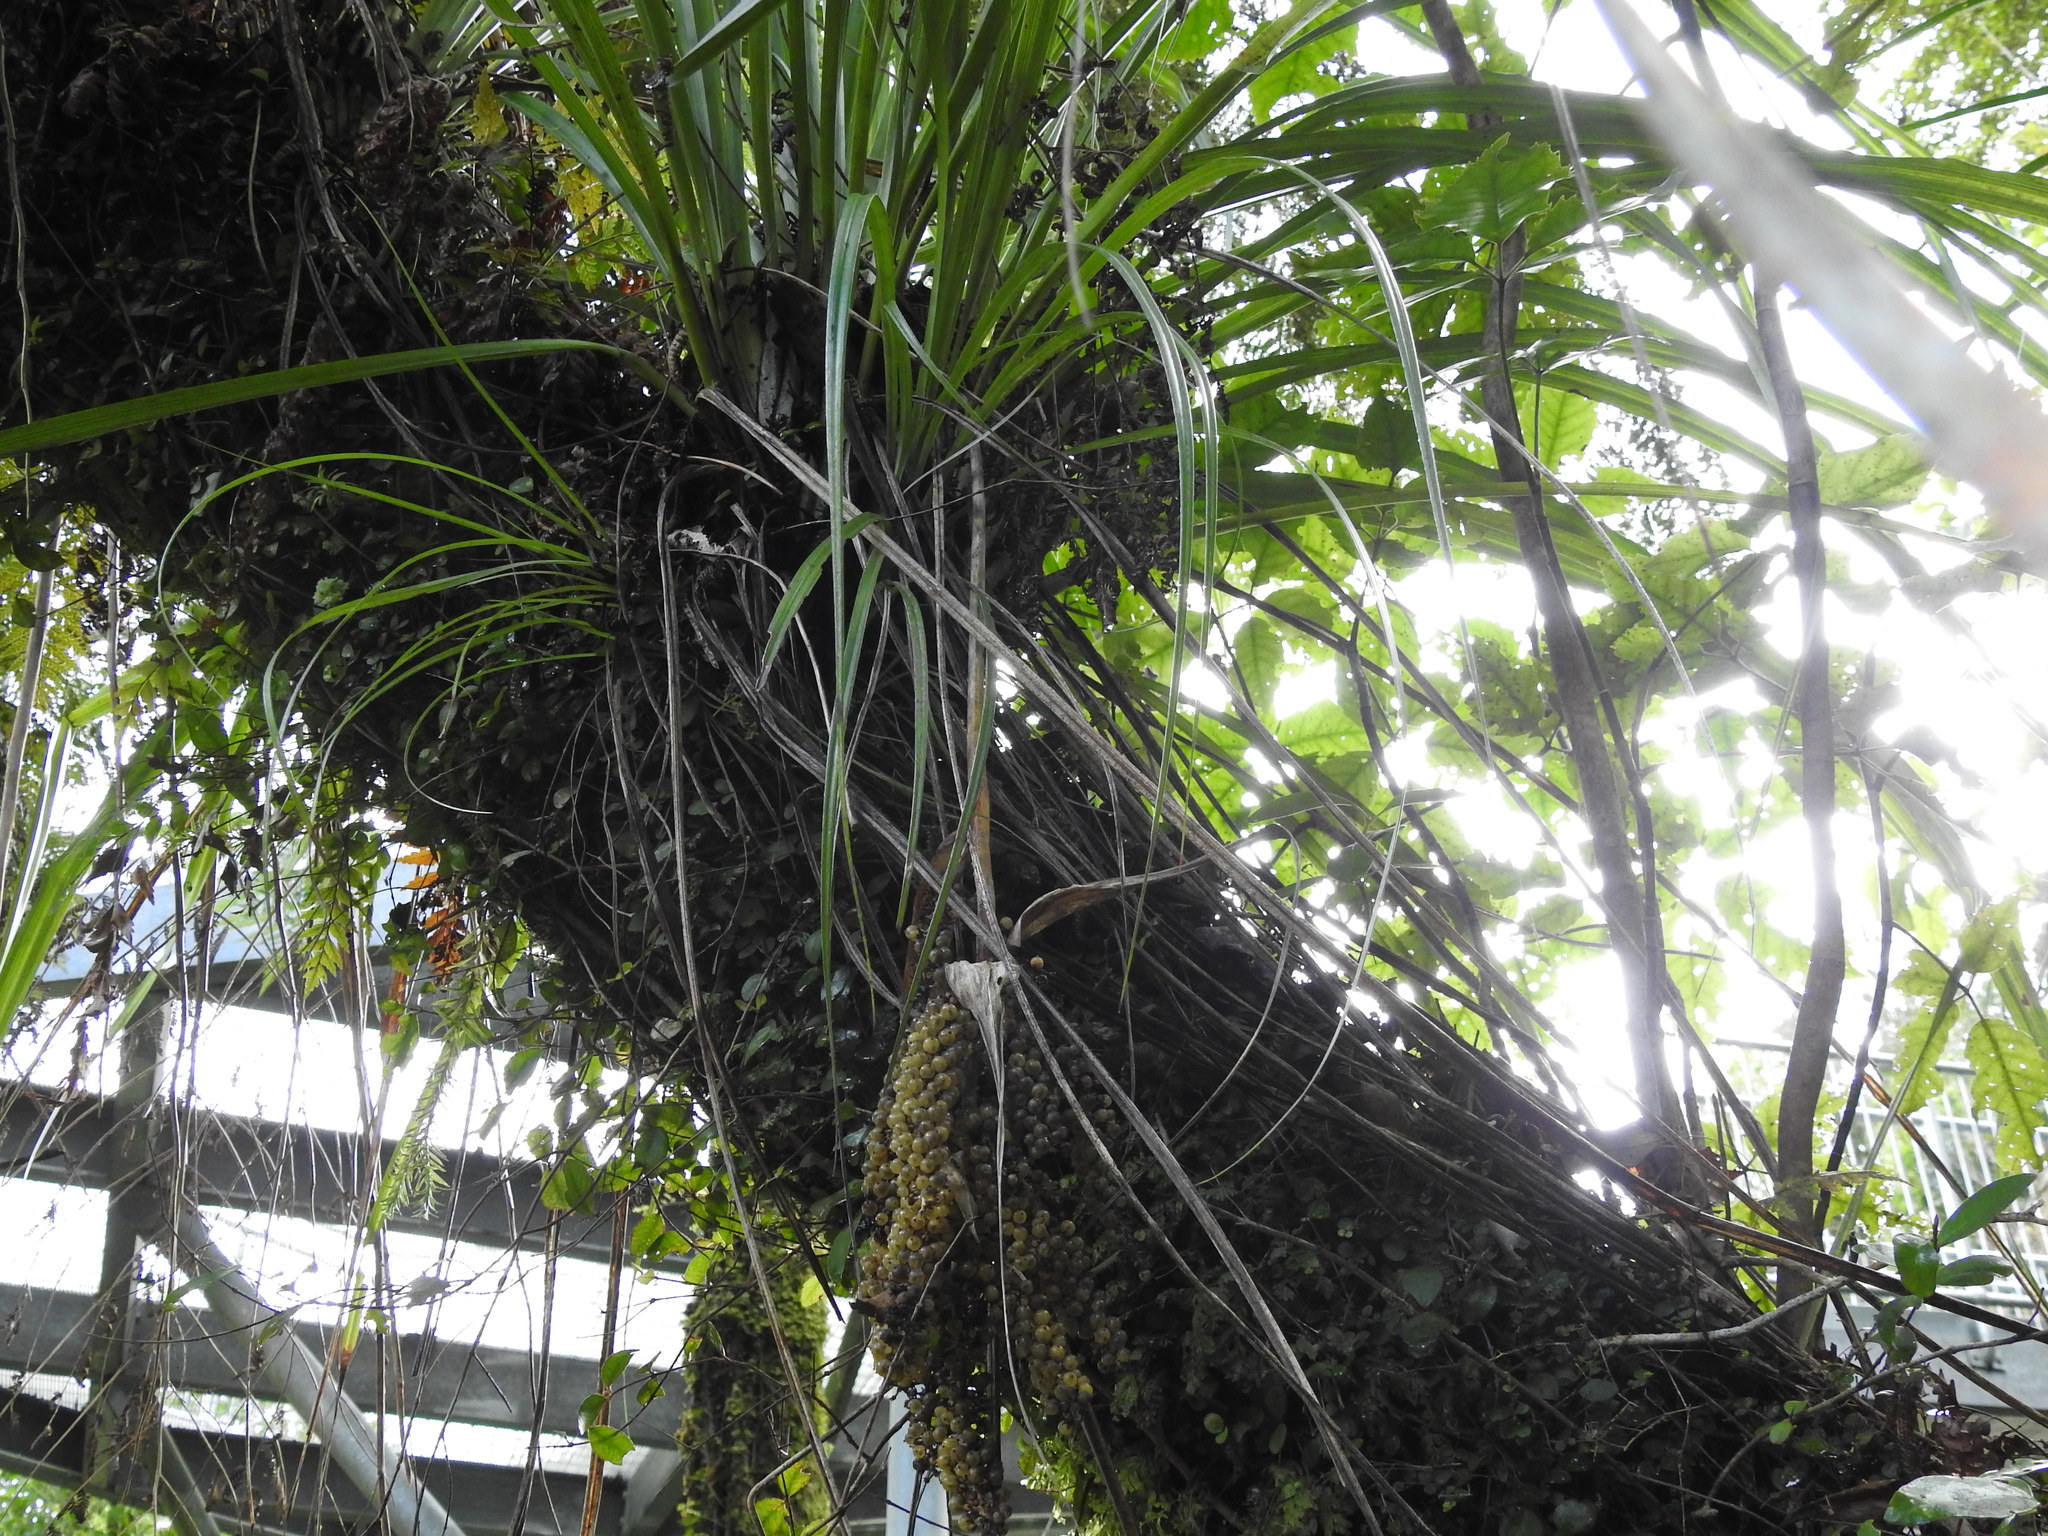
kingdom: Plantae
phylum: Tracheophyta
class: Liliopsida
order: Asparagales
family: Asteliaceae
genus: Astelia
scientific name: Astelia solandri
